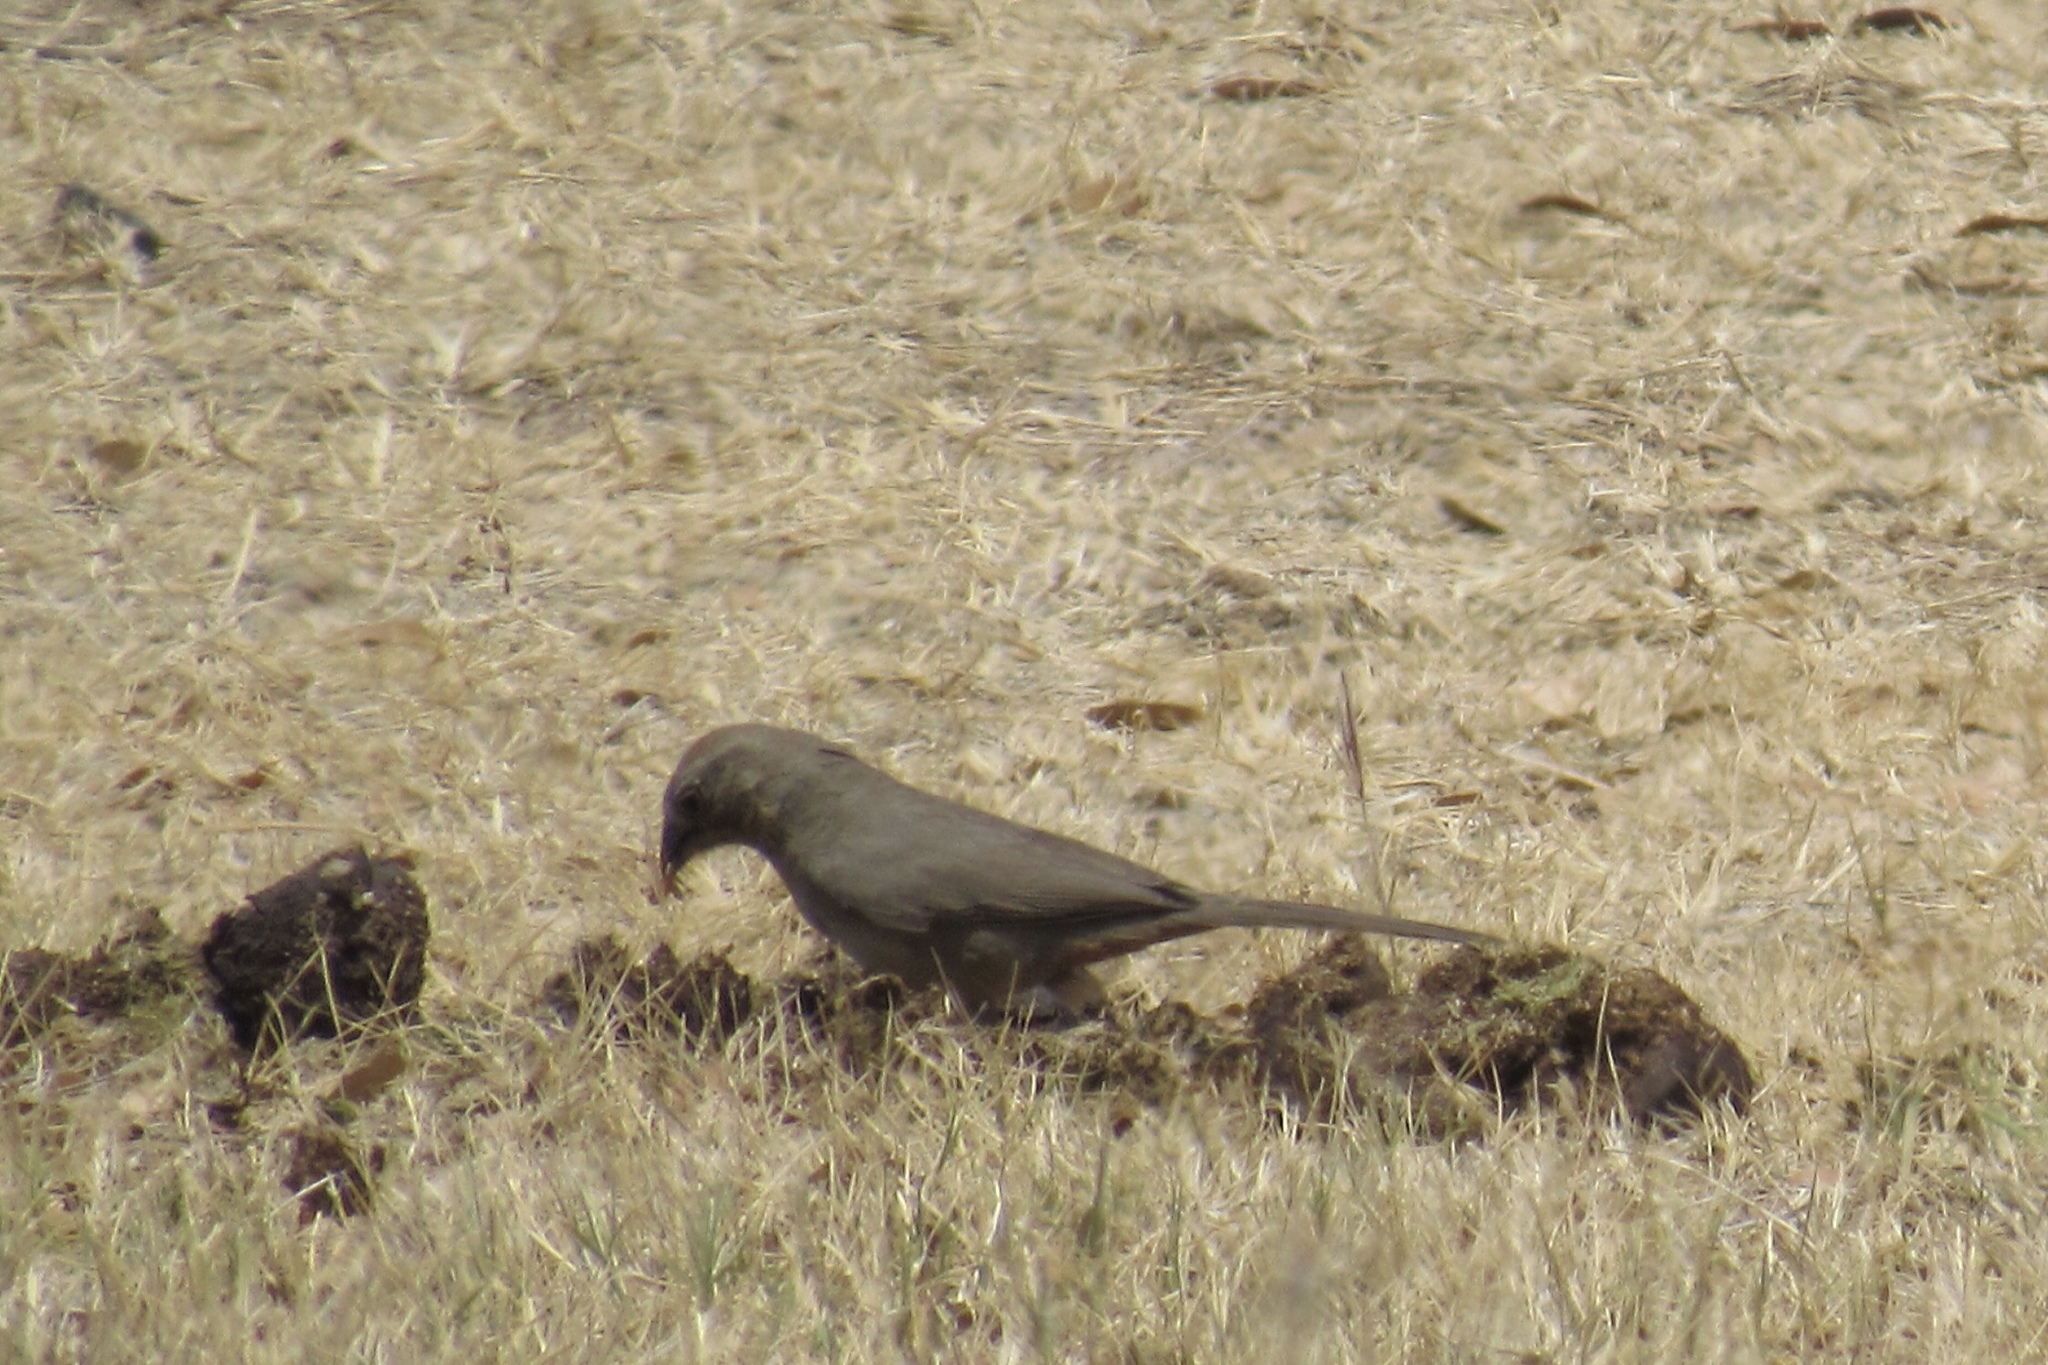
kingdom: Animalia
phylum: Chordata
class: Aves
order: Passeriformes
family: Passerellidae
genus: Melozone
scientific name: Melozone fusca
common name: Canyon towhee
